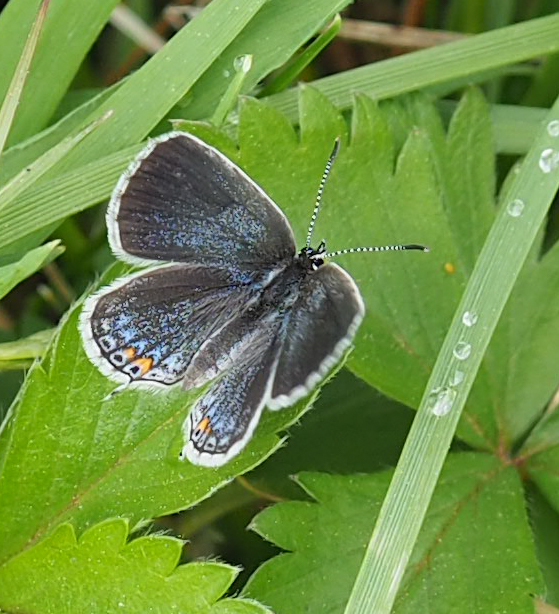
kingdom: Animalia
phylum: Arthropoda
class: Insecta
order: Lepidoptera
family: Lycaenidae
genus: Elkalyce
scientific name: Elkalyce comyntas
